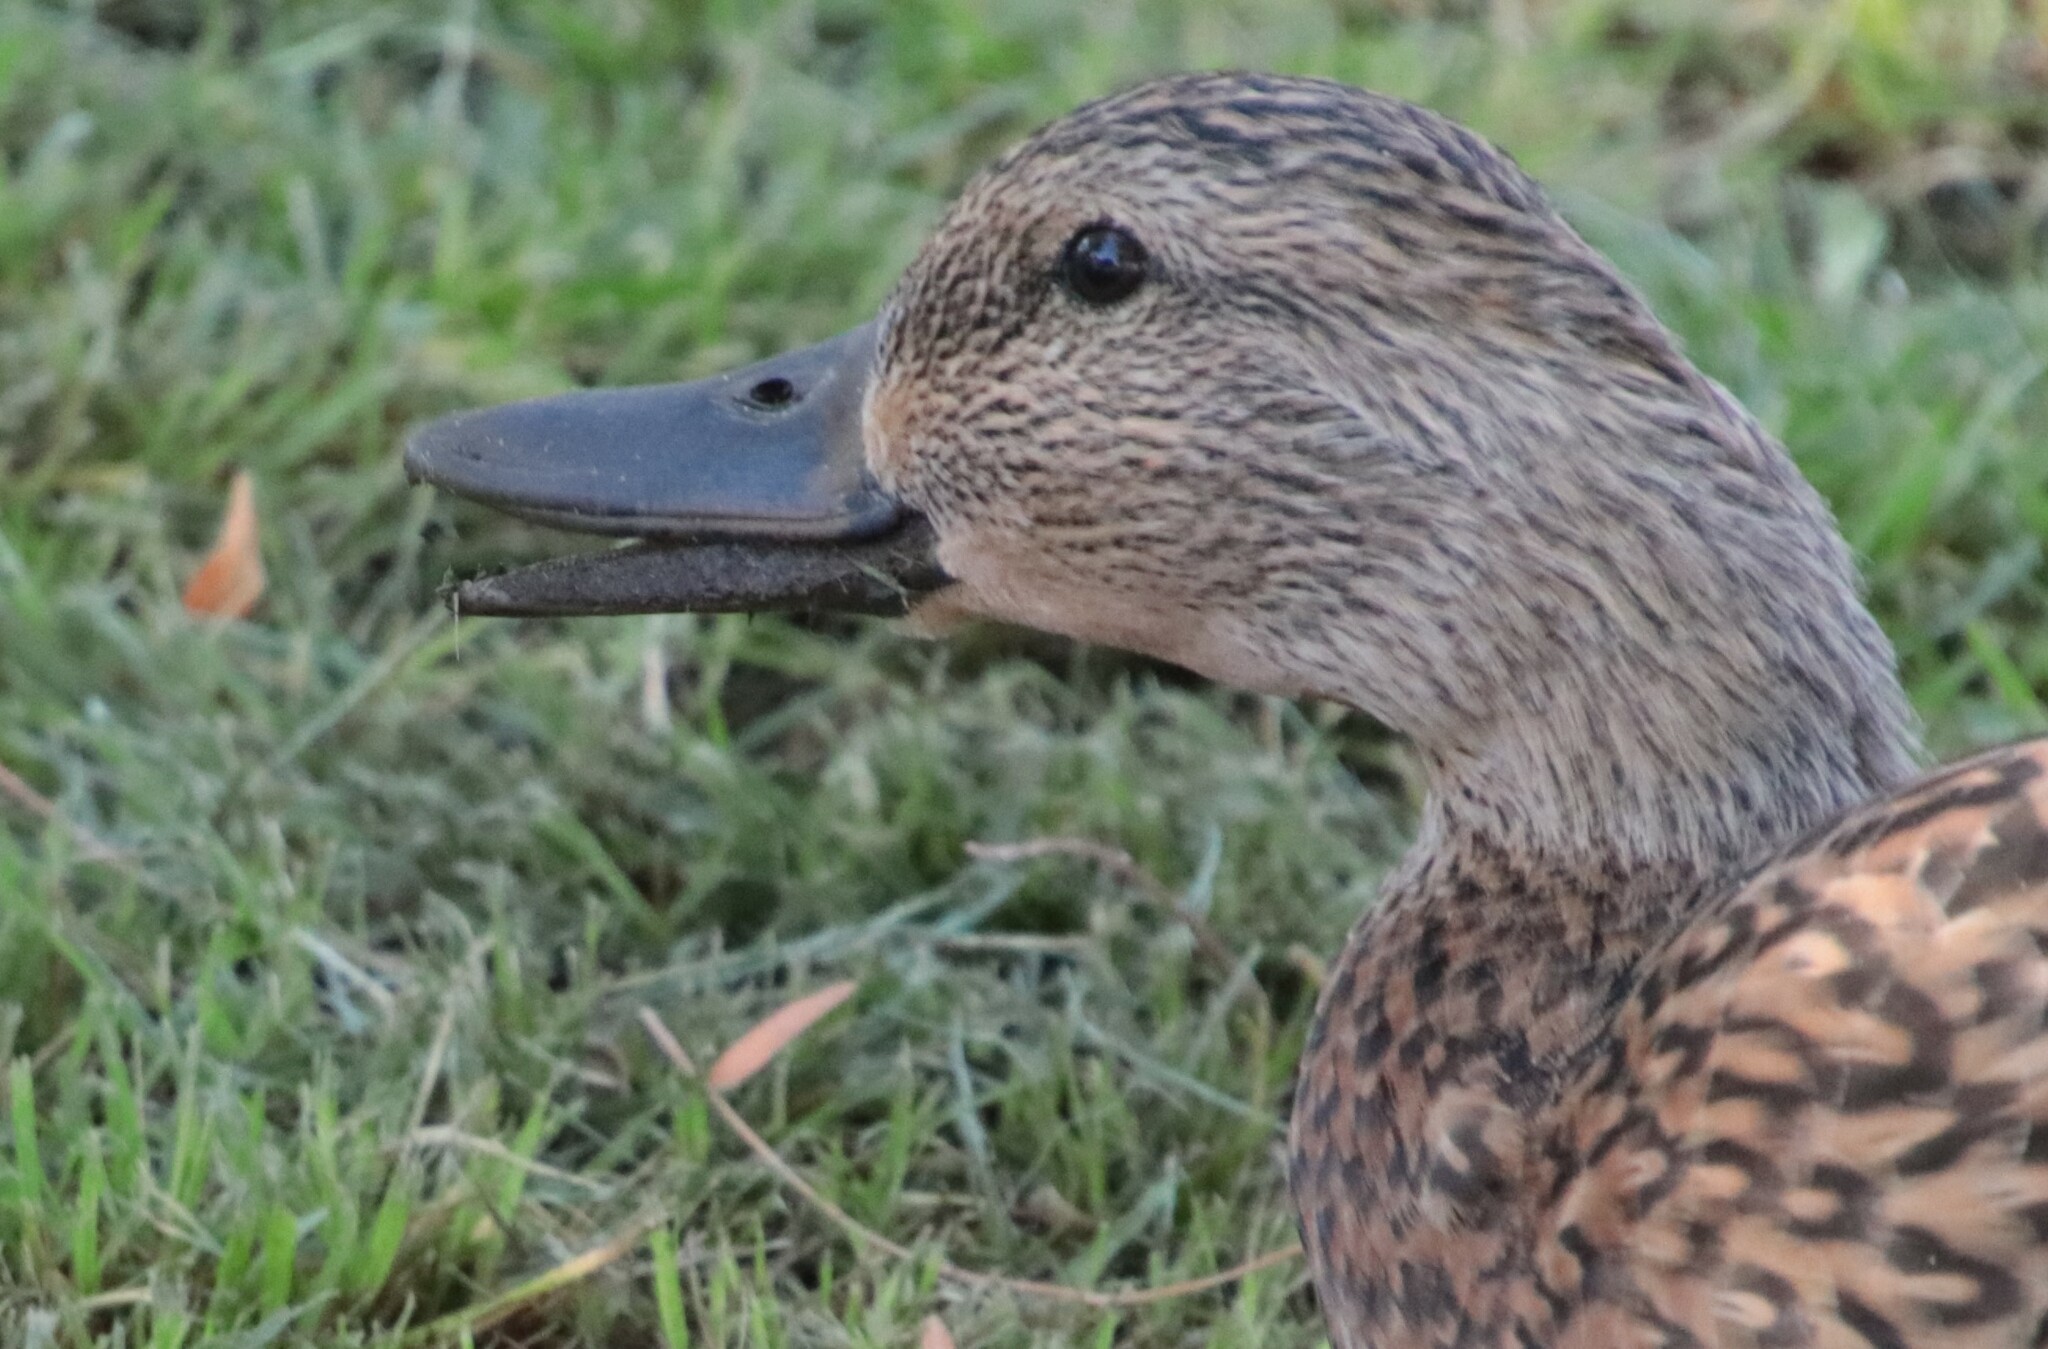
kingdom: Animalia
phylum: Chordata
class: Aves
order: Anseriformes
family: Anatidae
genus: Anas
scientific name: Anas platyrhynchos
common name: Mallard
